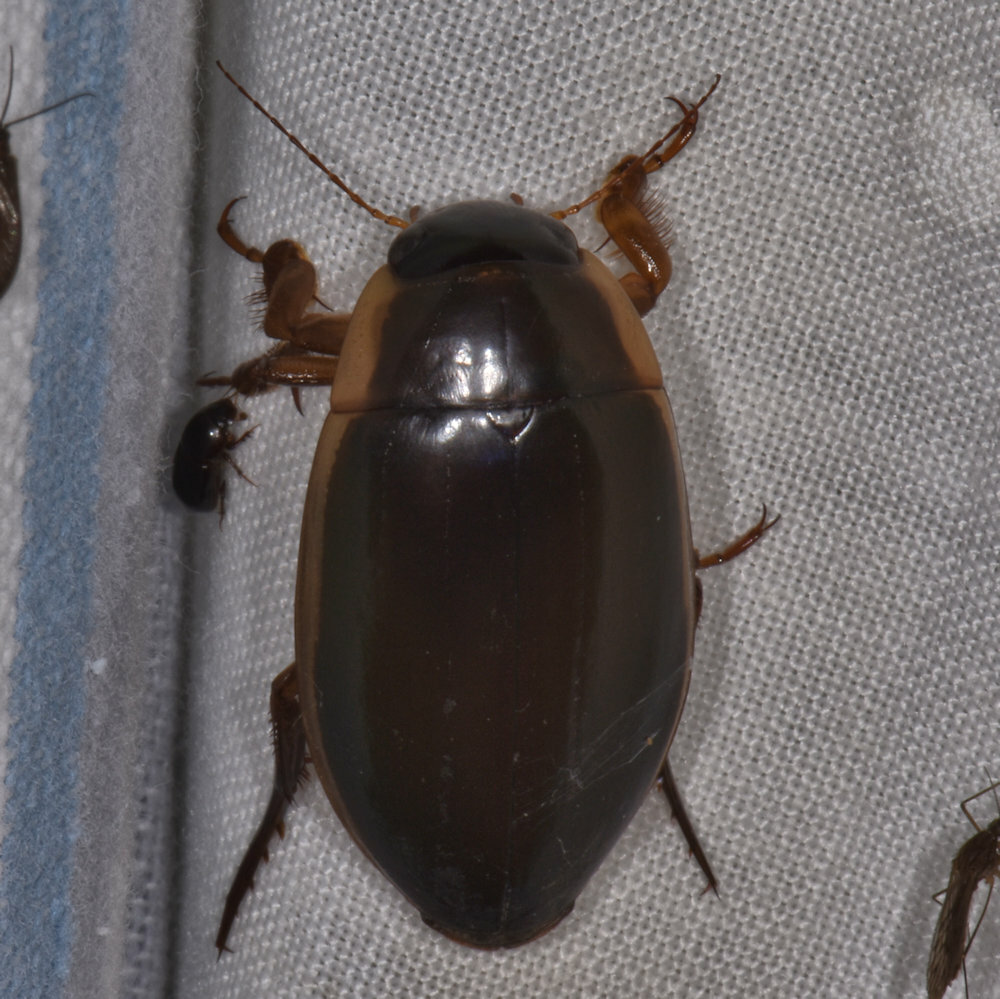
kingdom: Animalia
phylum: Arthropoda
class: Insecta
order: Coleoptera
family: Dytiscidae
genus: Dytiscus
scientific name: Dytiscus
